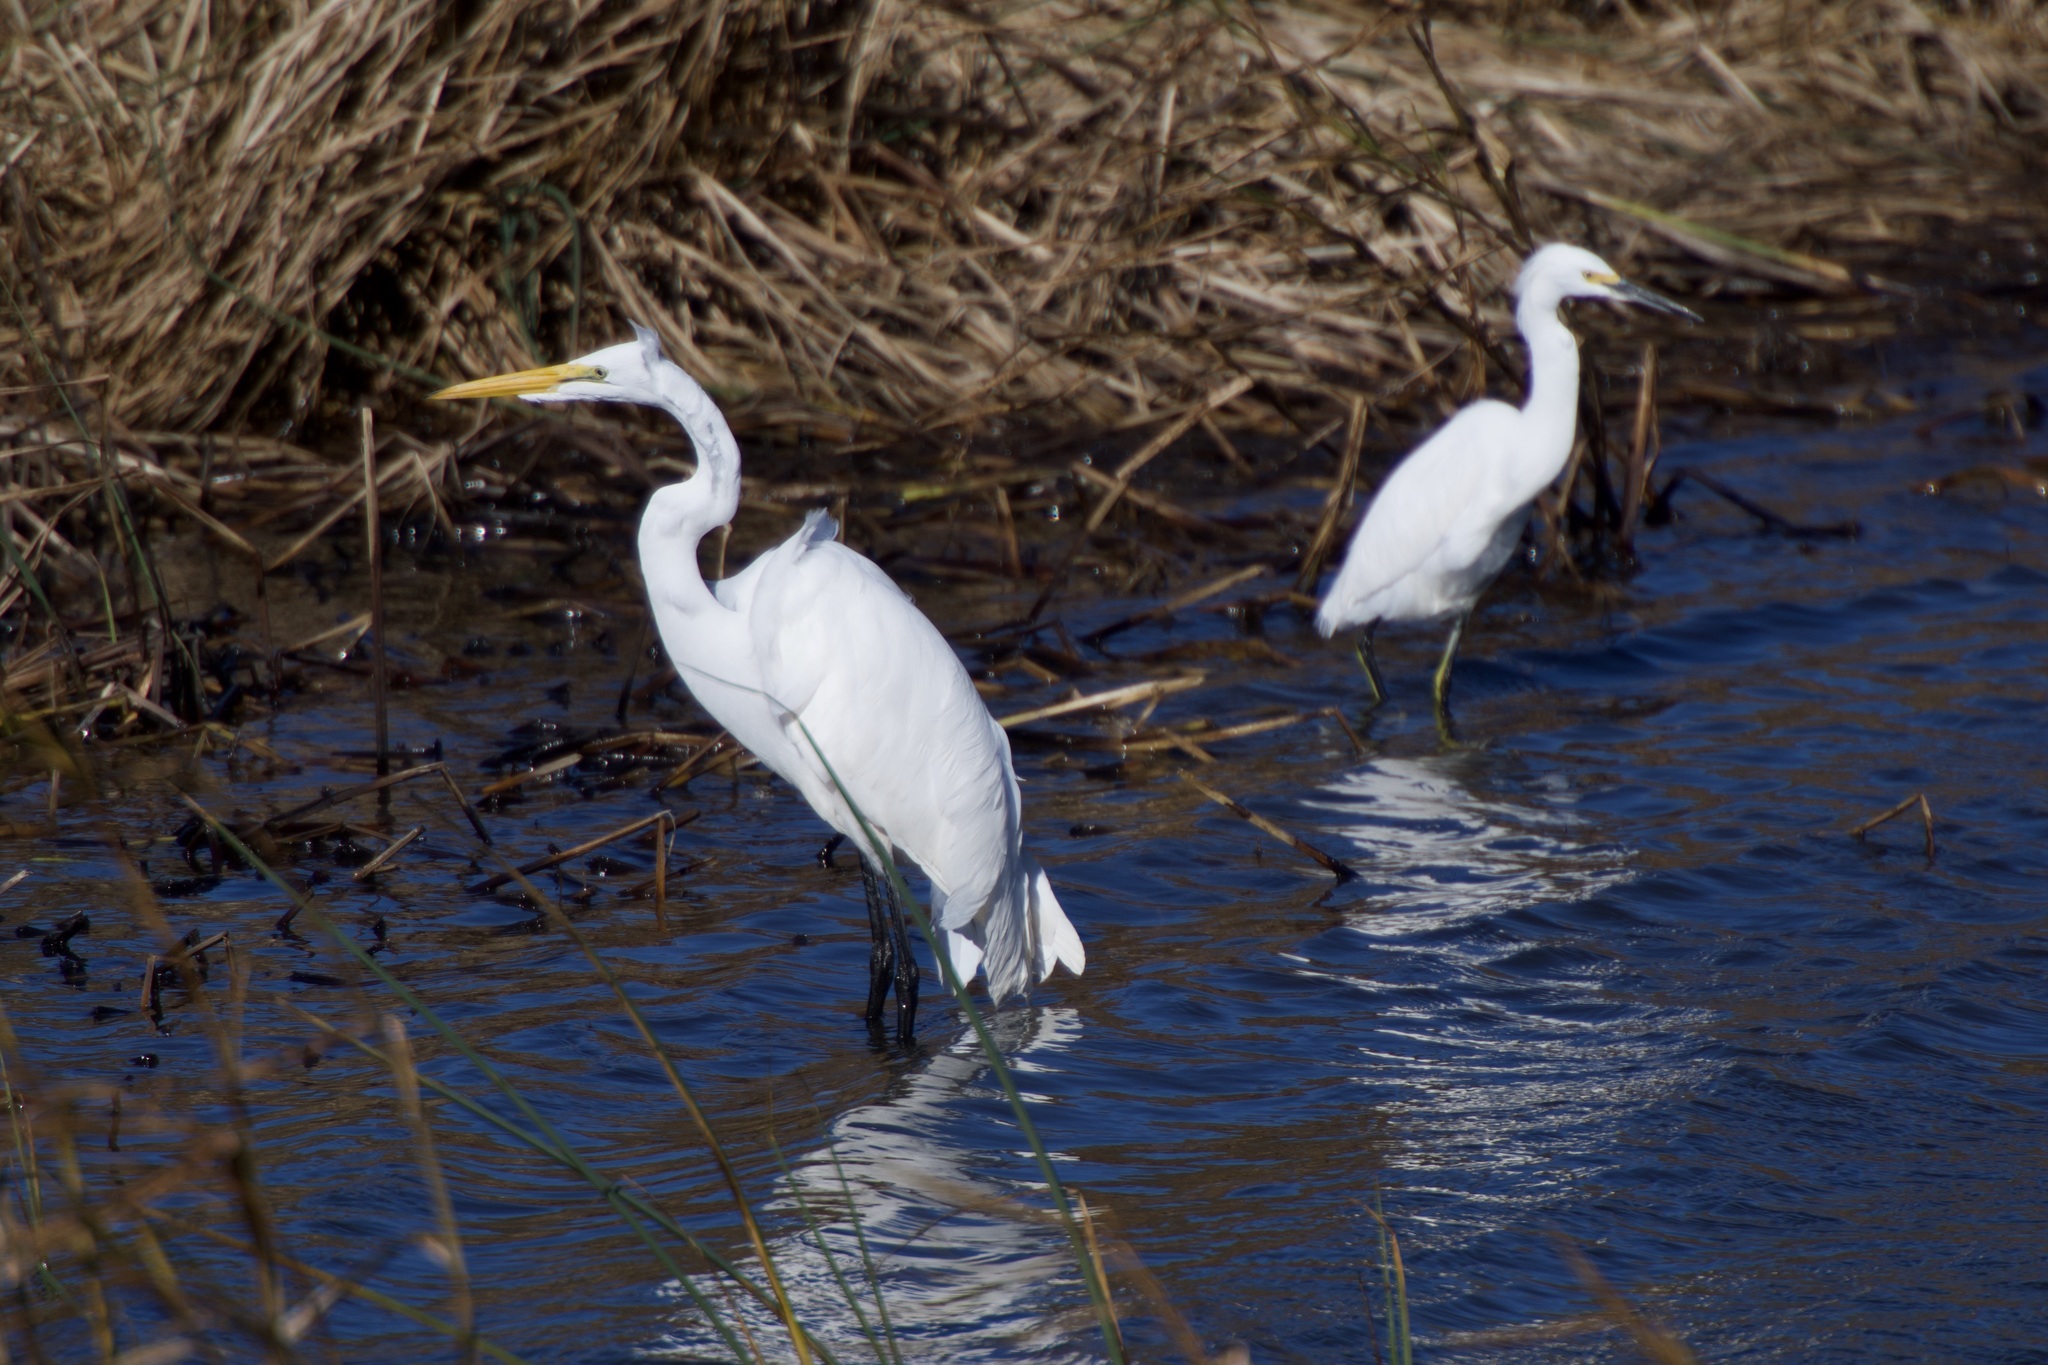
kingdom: Animalia
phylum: Chordata
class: Aves
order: Pelecaniformes
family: Ardeidae
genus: Ardea
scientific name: Ardea alba
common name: Great egret
